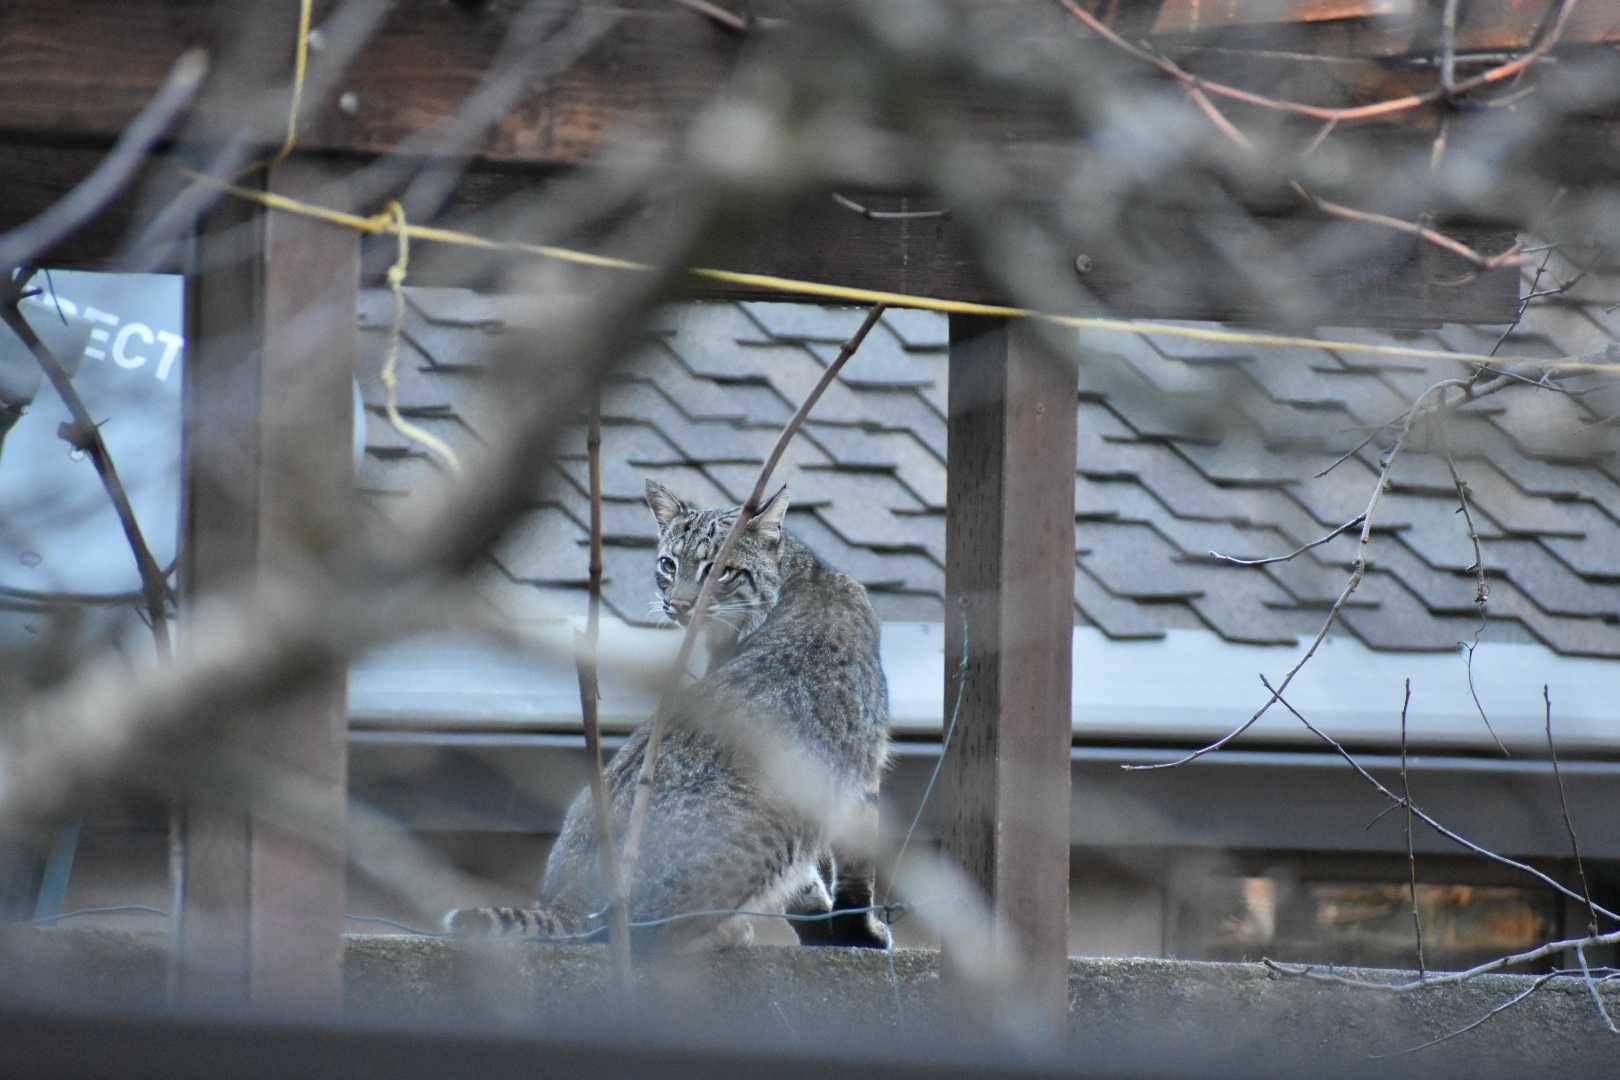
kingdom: Animalia
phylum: Chordata
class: Mammalia
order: Carnivora
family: Felidae
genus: Lynx
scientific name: Lynx rufus
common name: Bobcat
